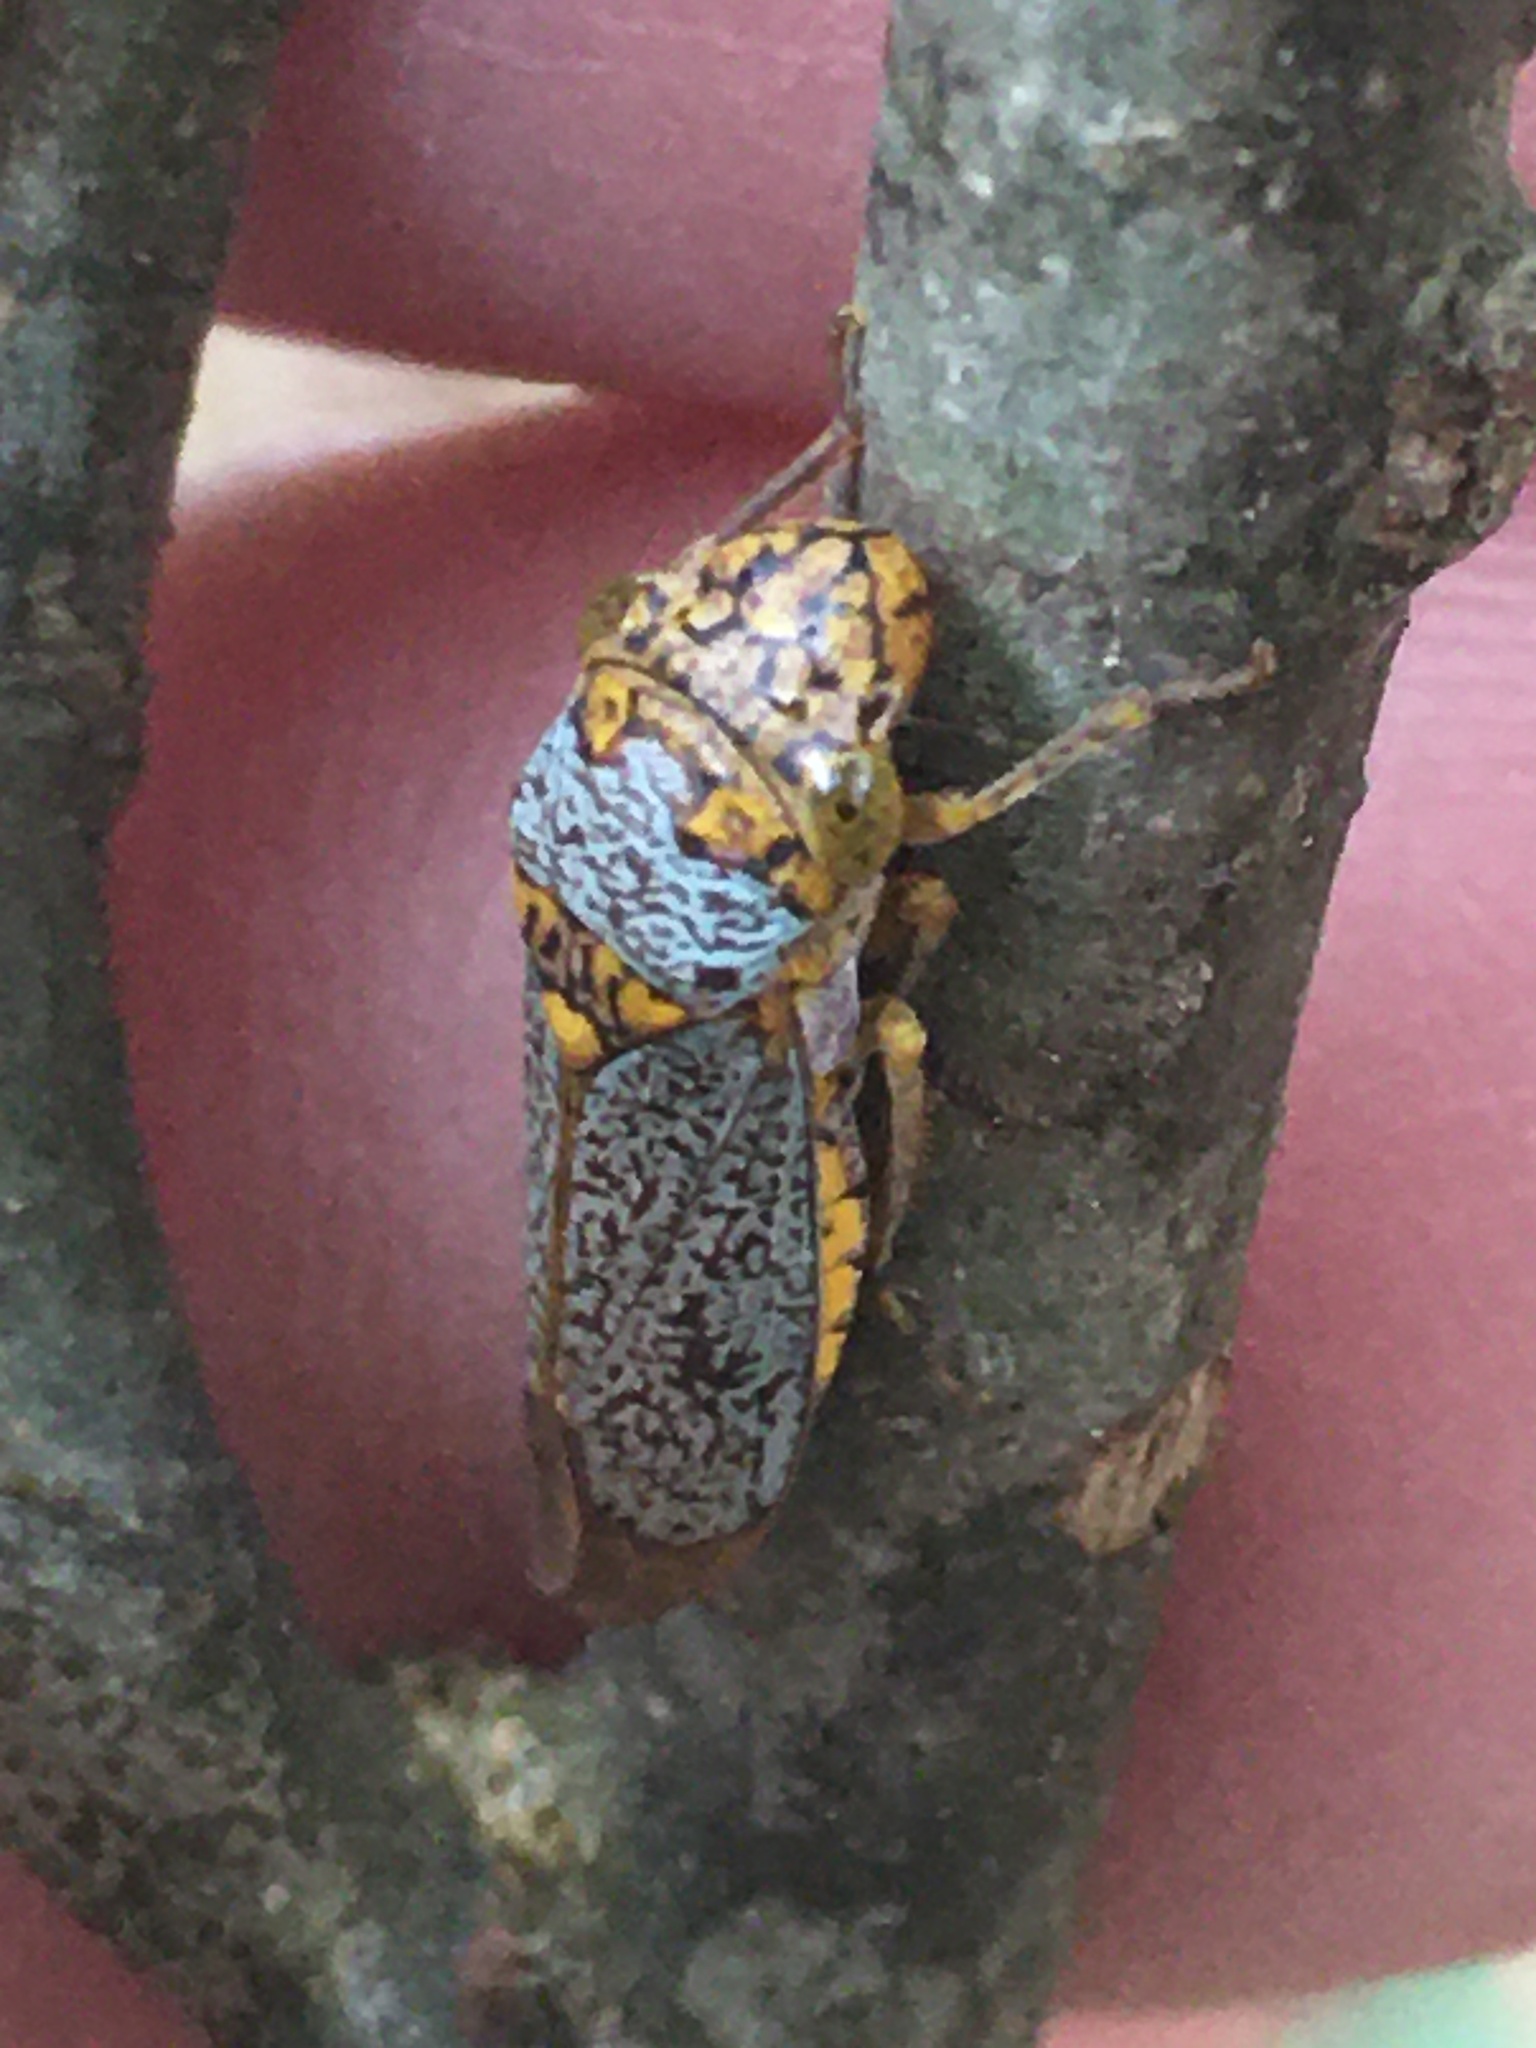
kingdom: Animalia
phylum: Arthropoda
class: Insecta
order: Hemiptera
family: Cicadellidae
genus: Oncometopia
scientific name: Oncometopia orbona
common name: Broad-headed sharpshooter
